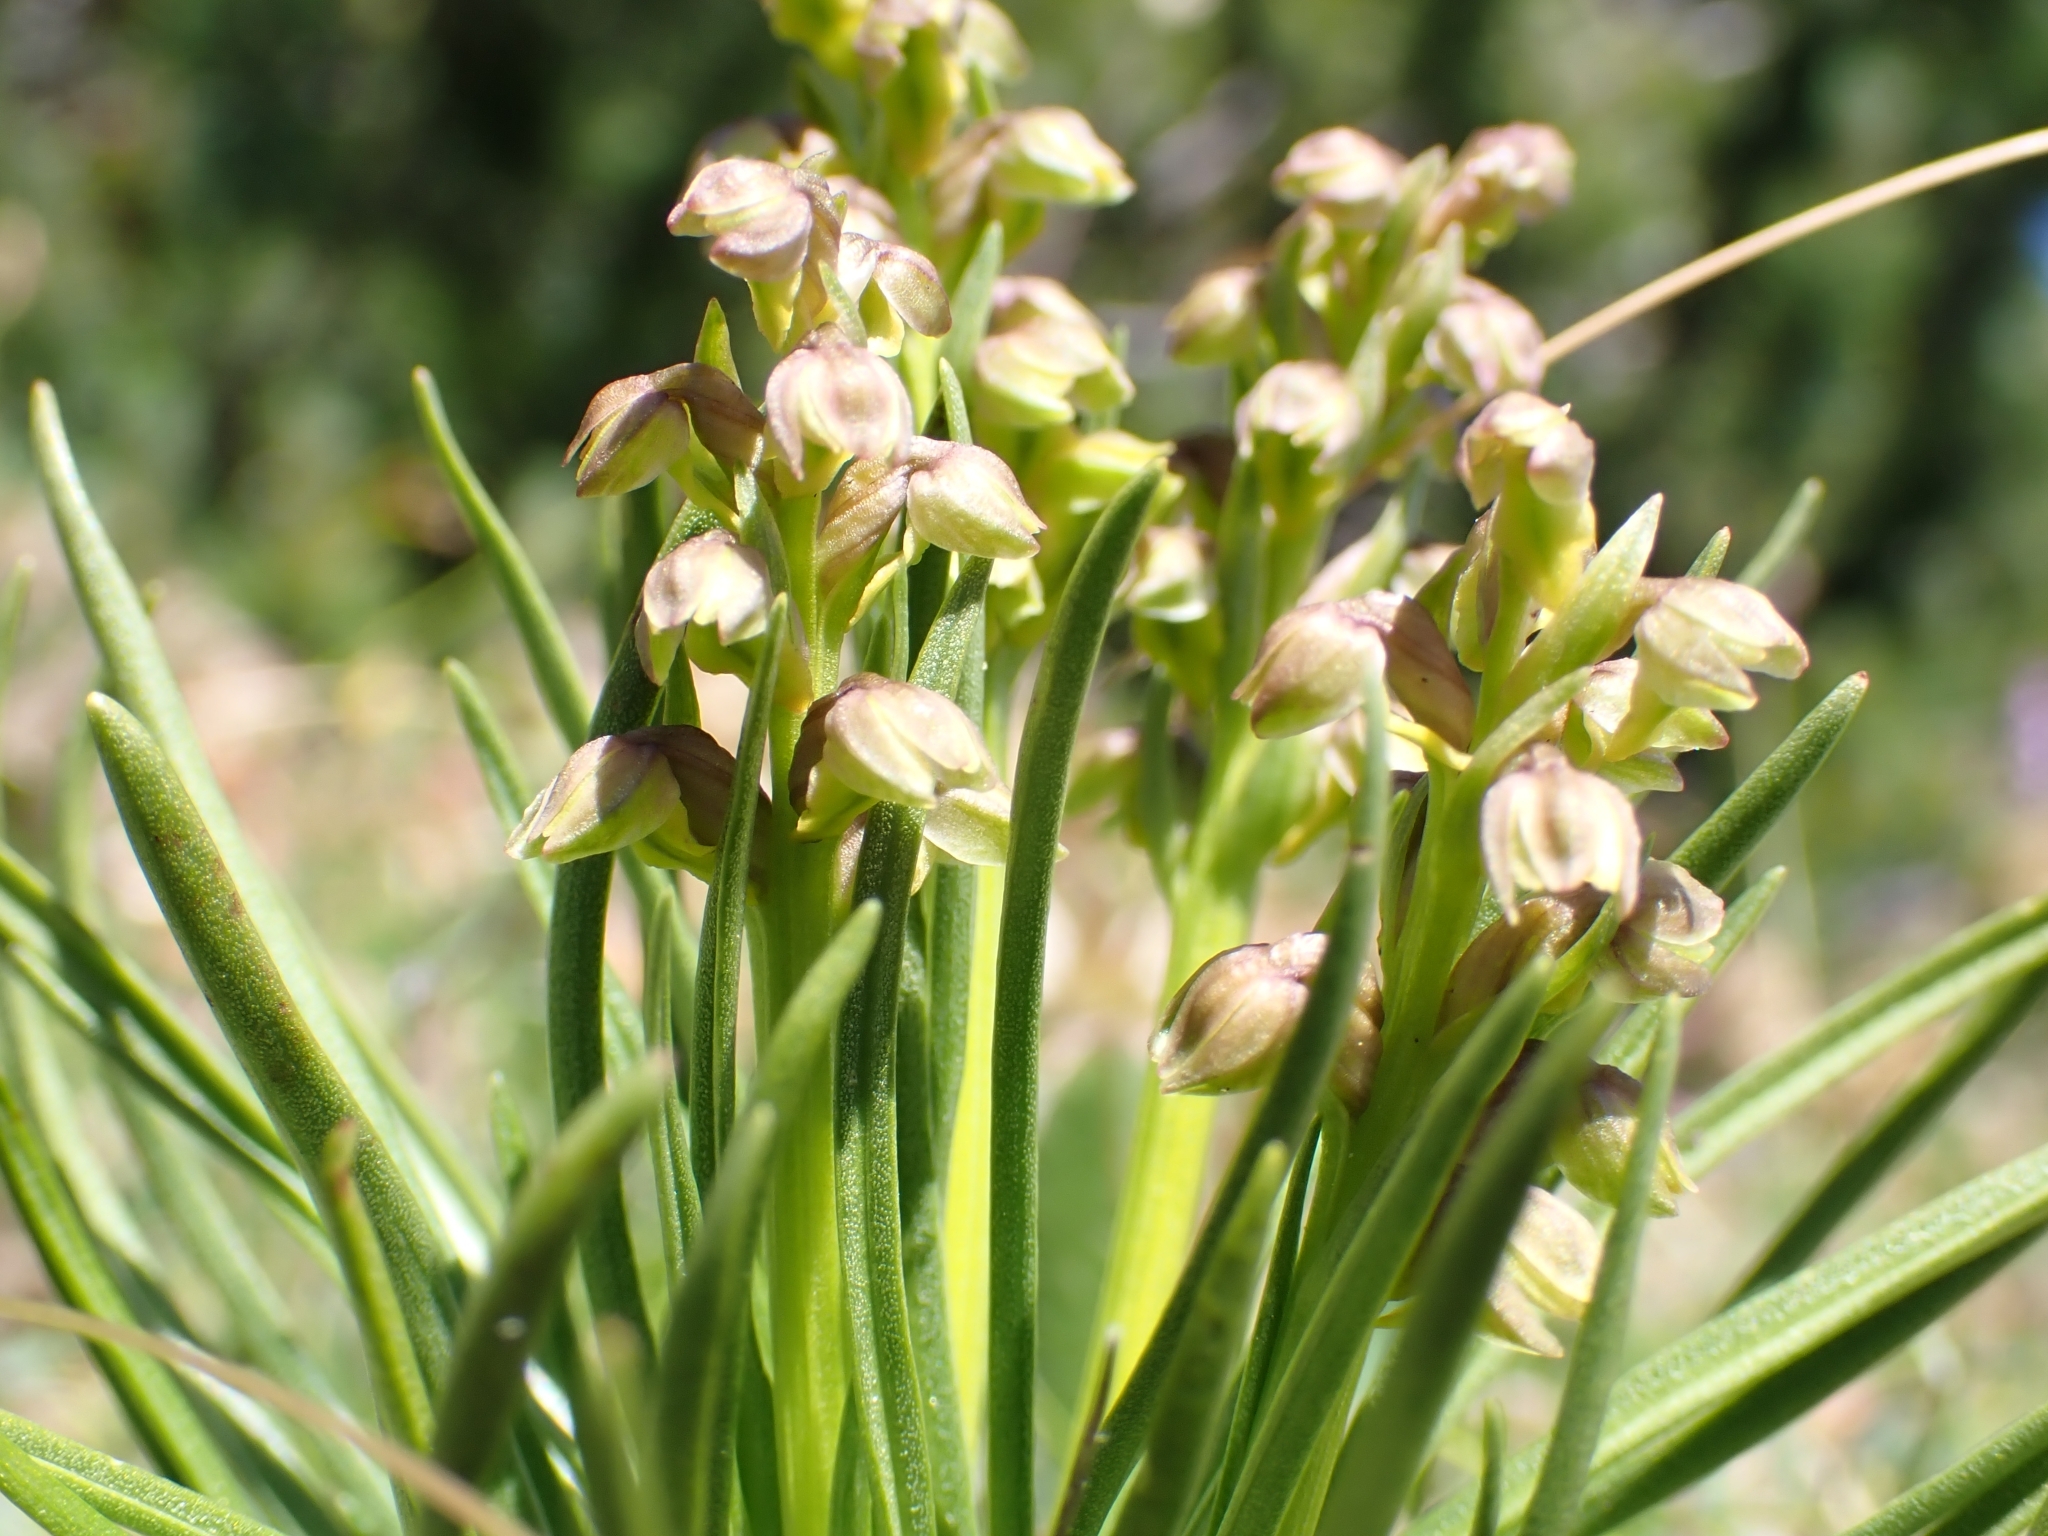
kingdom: Plantae
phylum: Tracheophyta
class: Liliopsida
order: Asparagales
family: Orchidaceae
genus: Chamorchis
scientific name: Chamorchis alpina
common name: Alpine chamorchis
